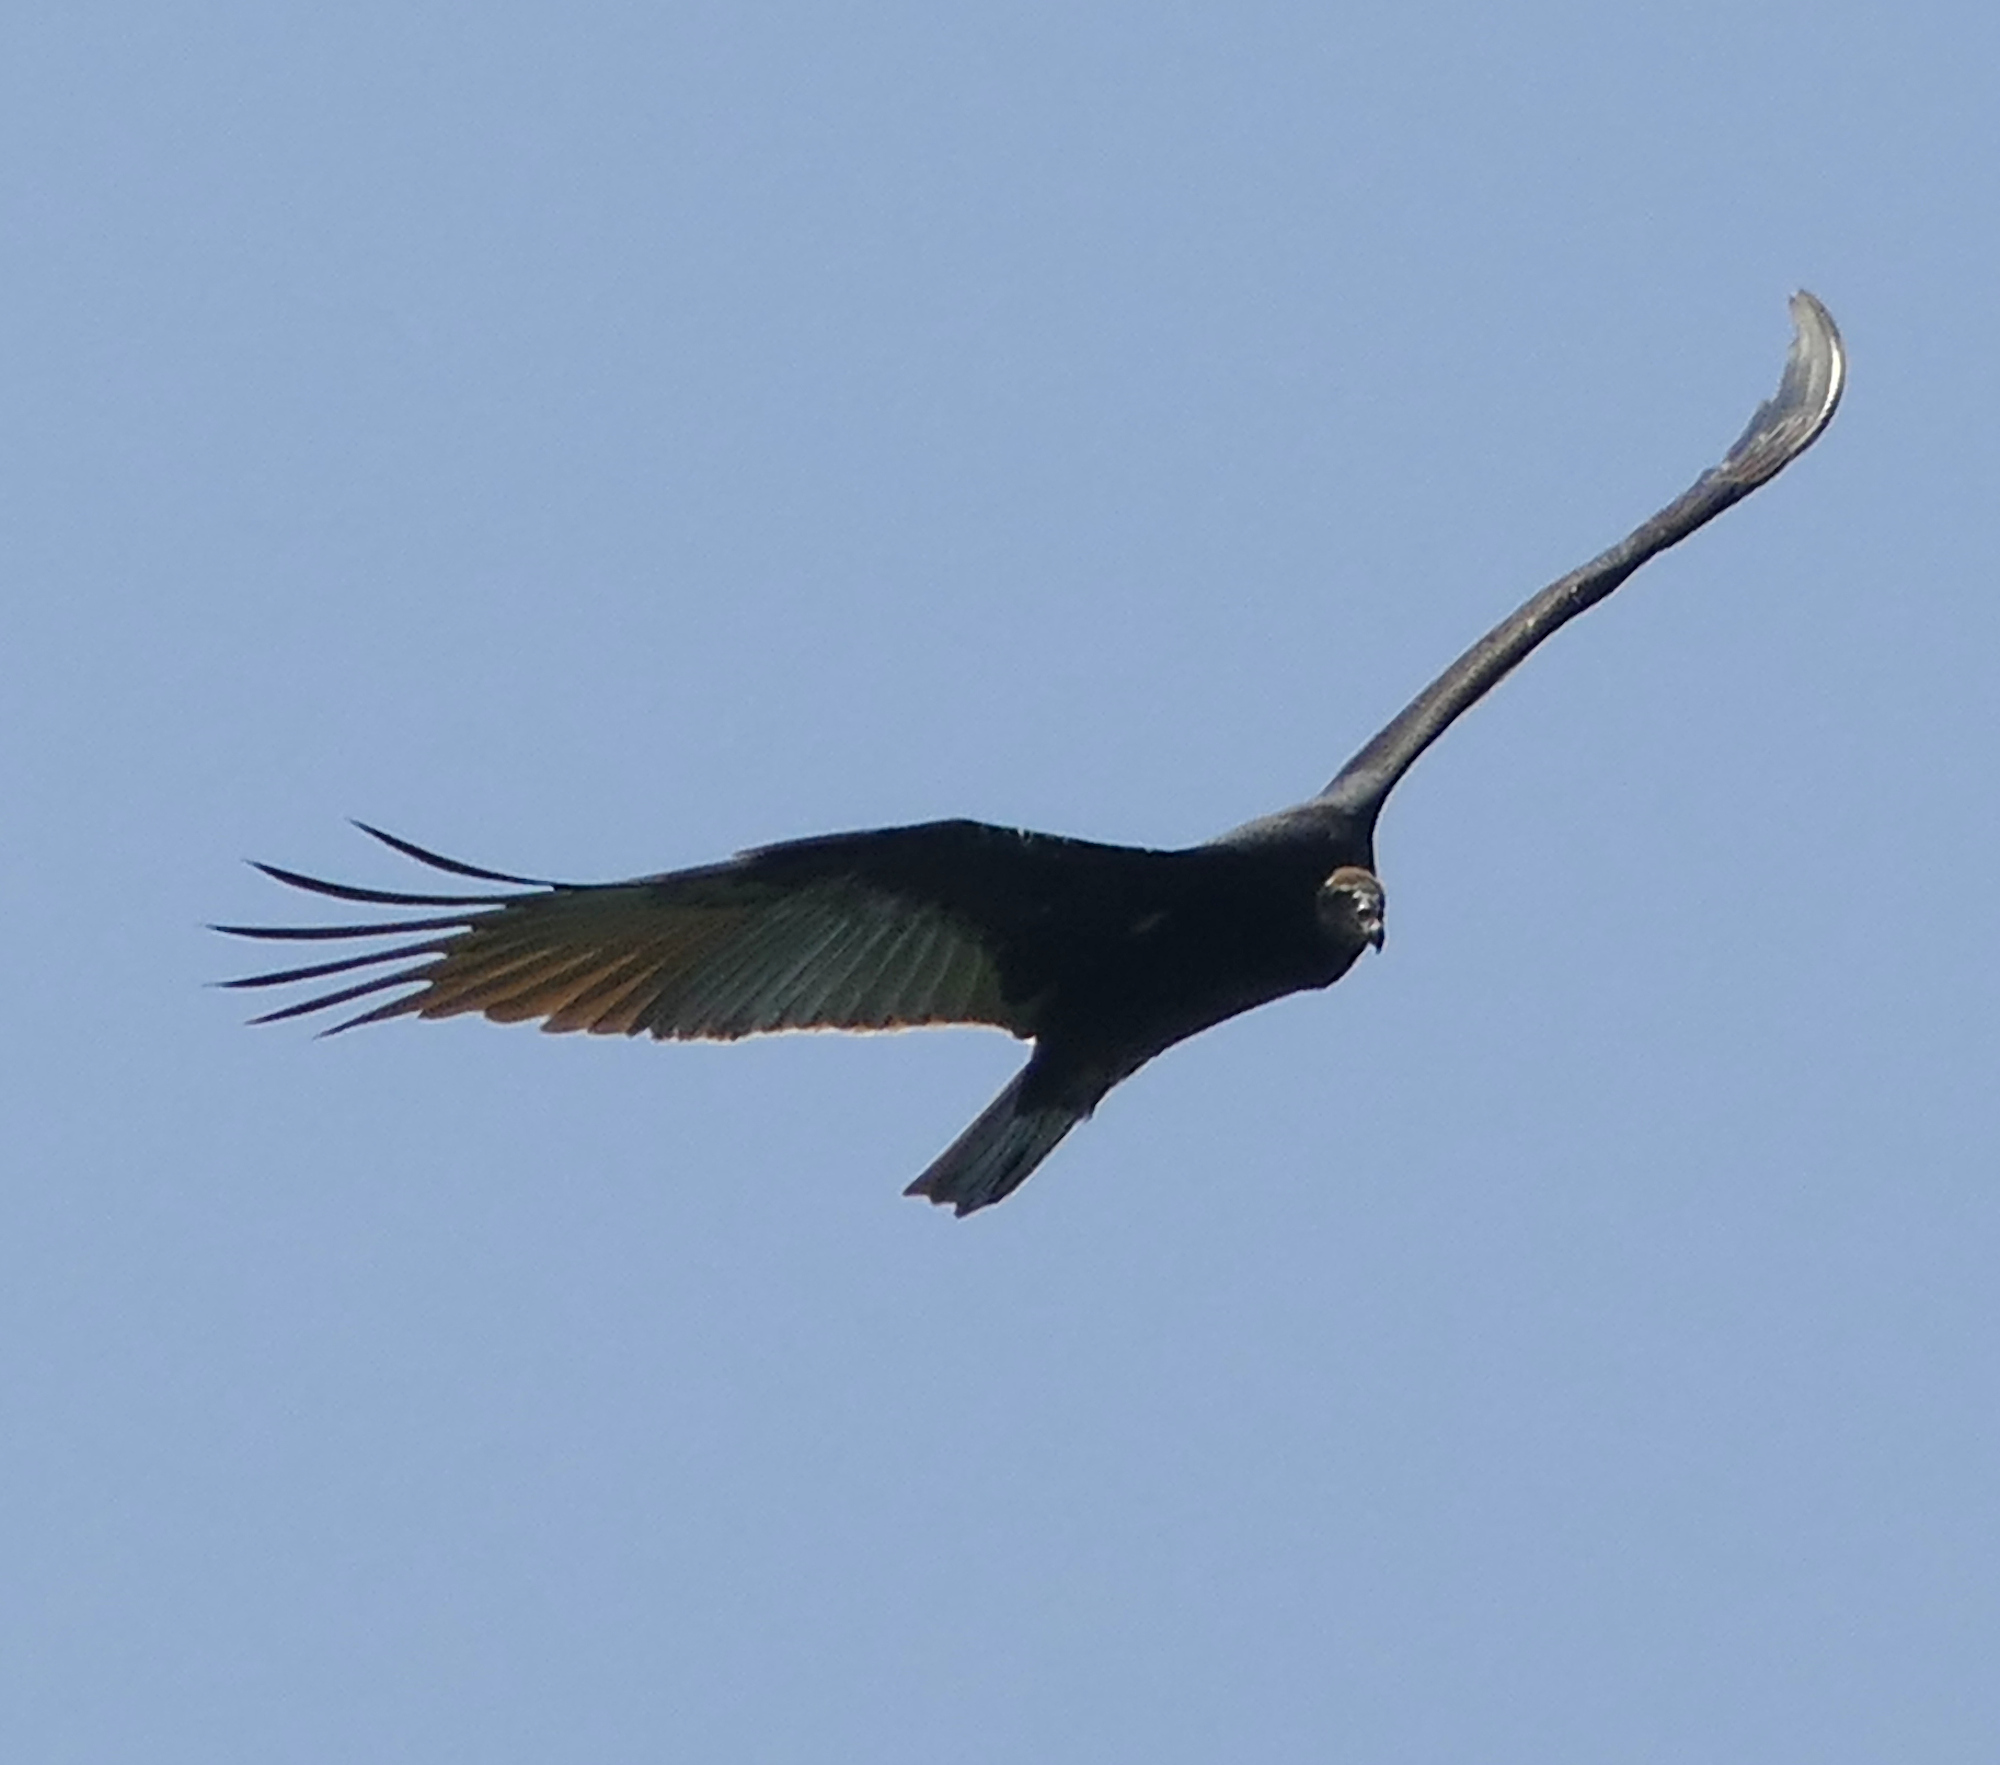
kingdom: Animalia
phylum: Chordata
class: Aves
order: Accipitriformes
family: Cathartidae
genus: Cathartes
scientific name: Cathartes aura
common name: Turkey vulture
